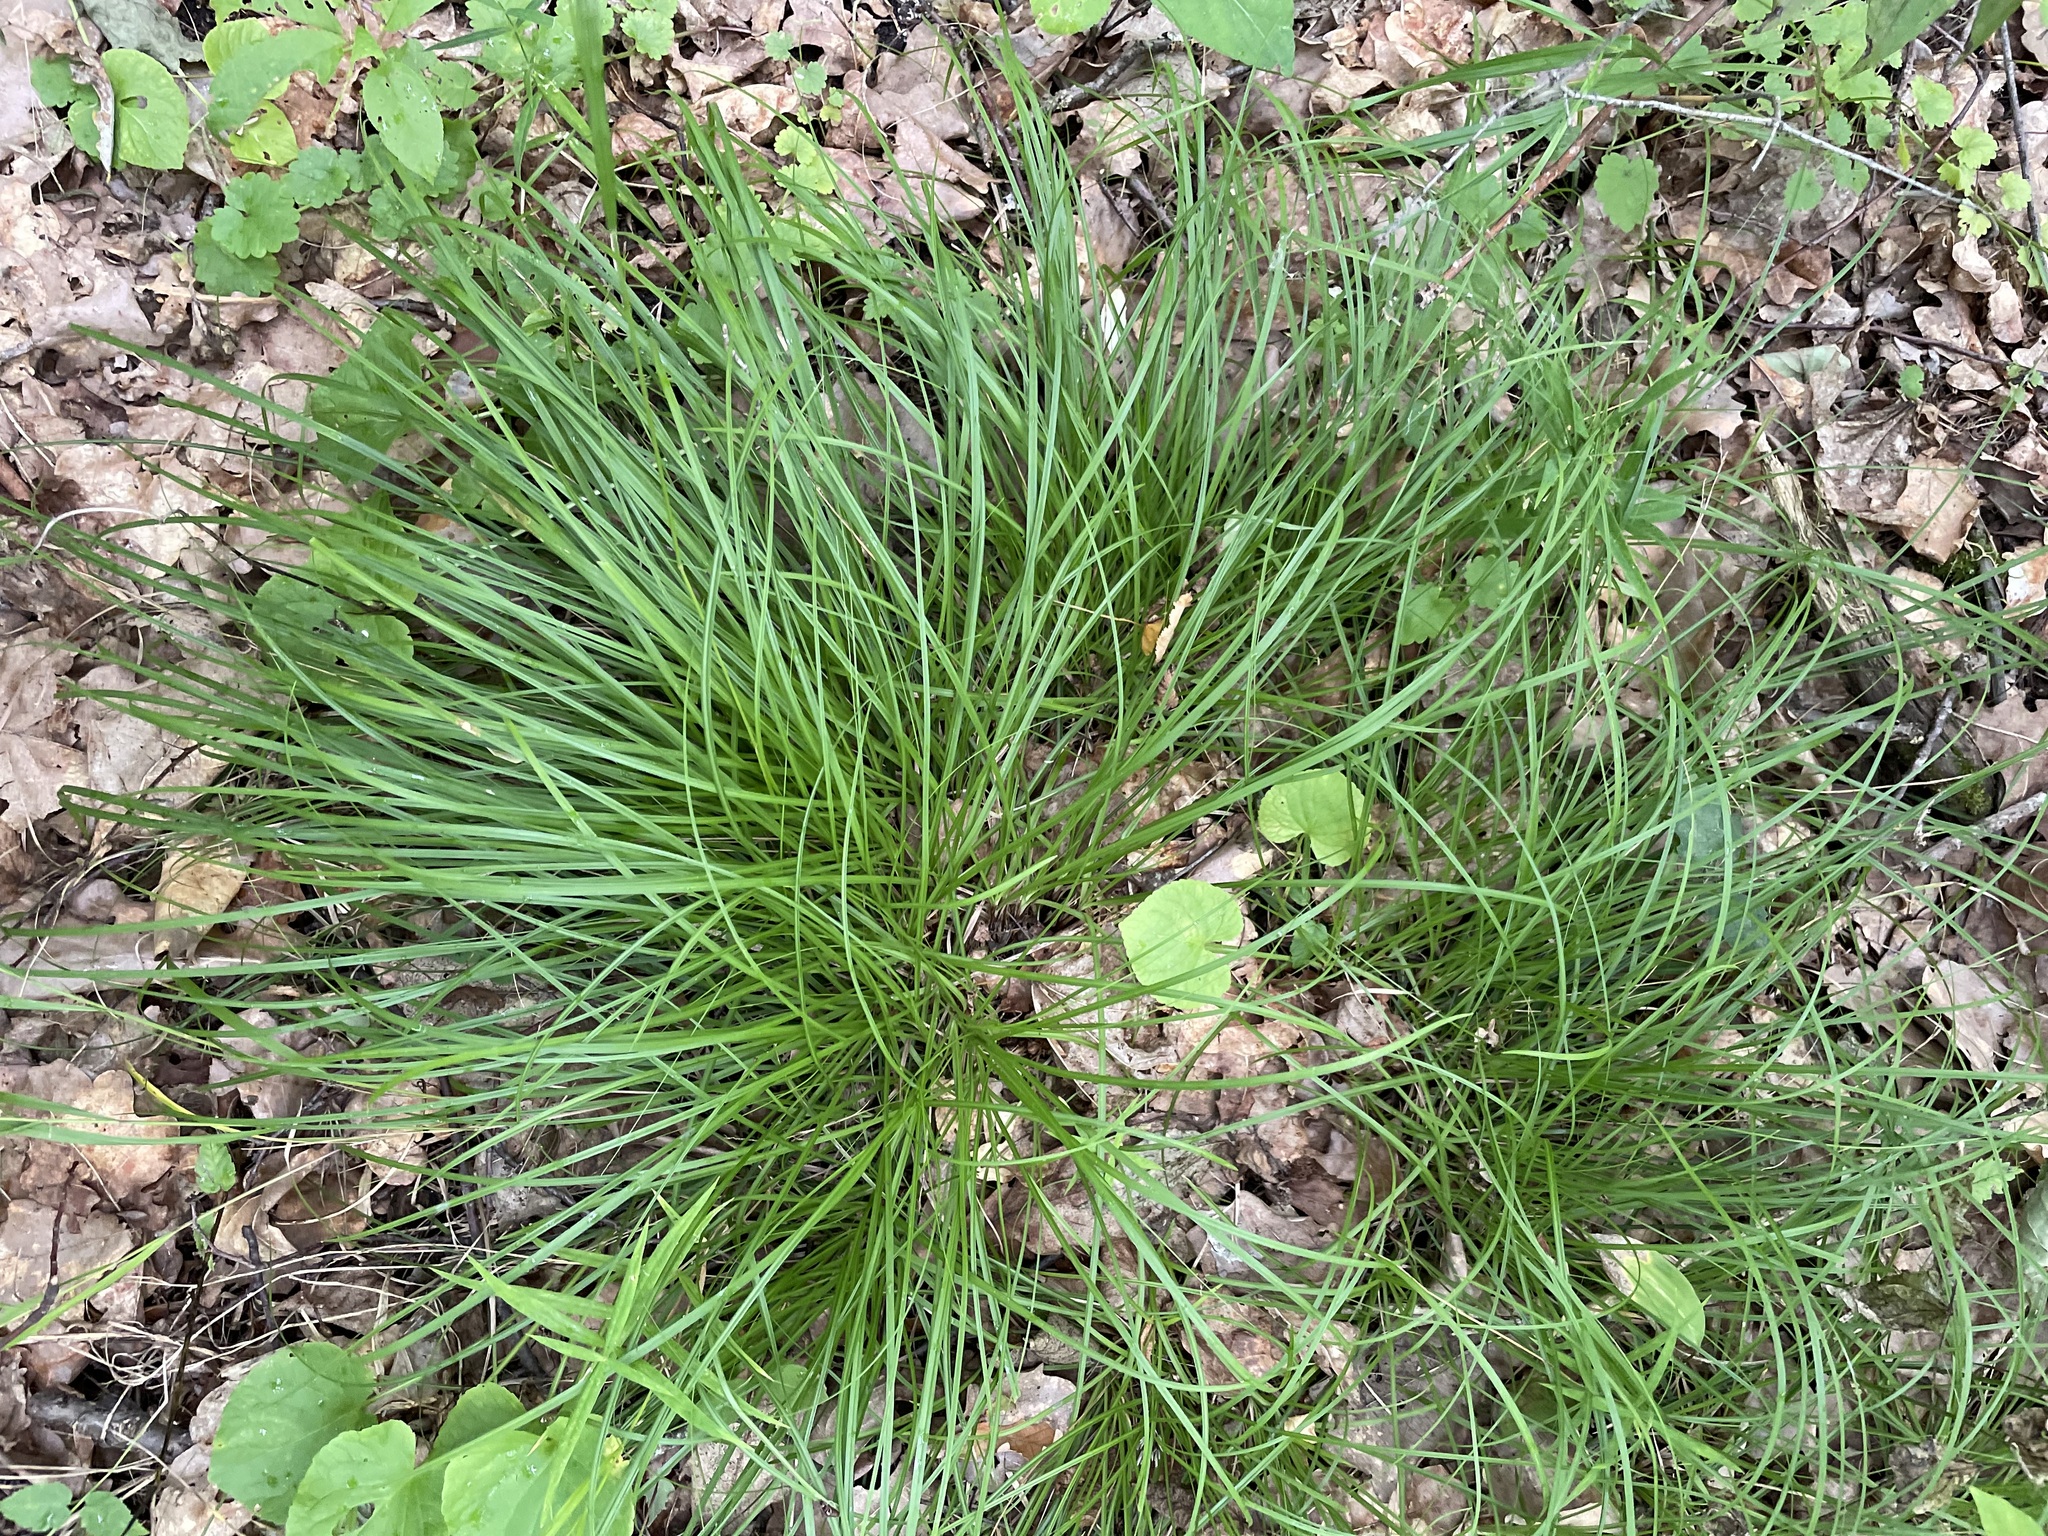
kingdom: Plantae
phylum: Tracheophyta
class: Liliopsida
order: Poales
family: Cyperaceae
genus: Carex
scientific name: Carex digitata
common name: Fingered sedge
